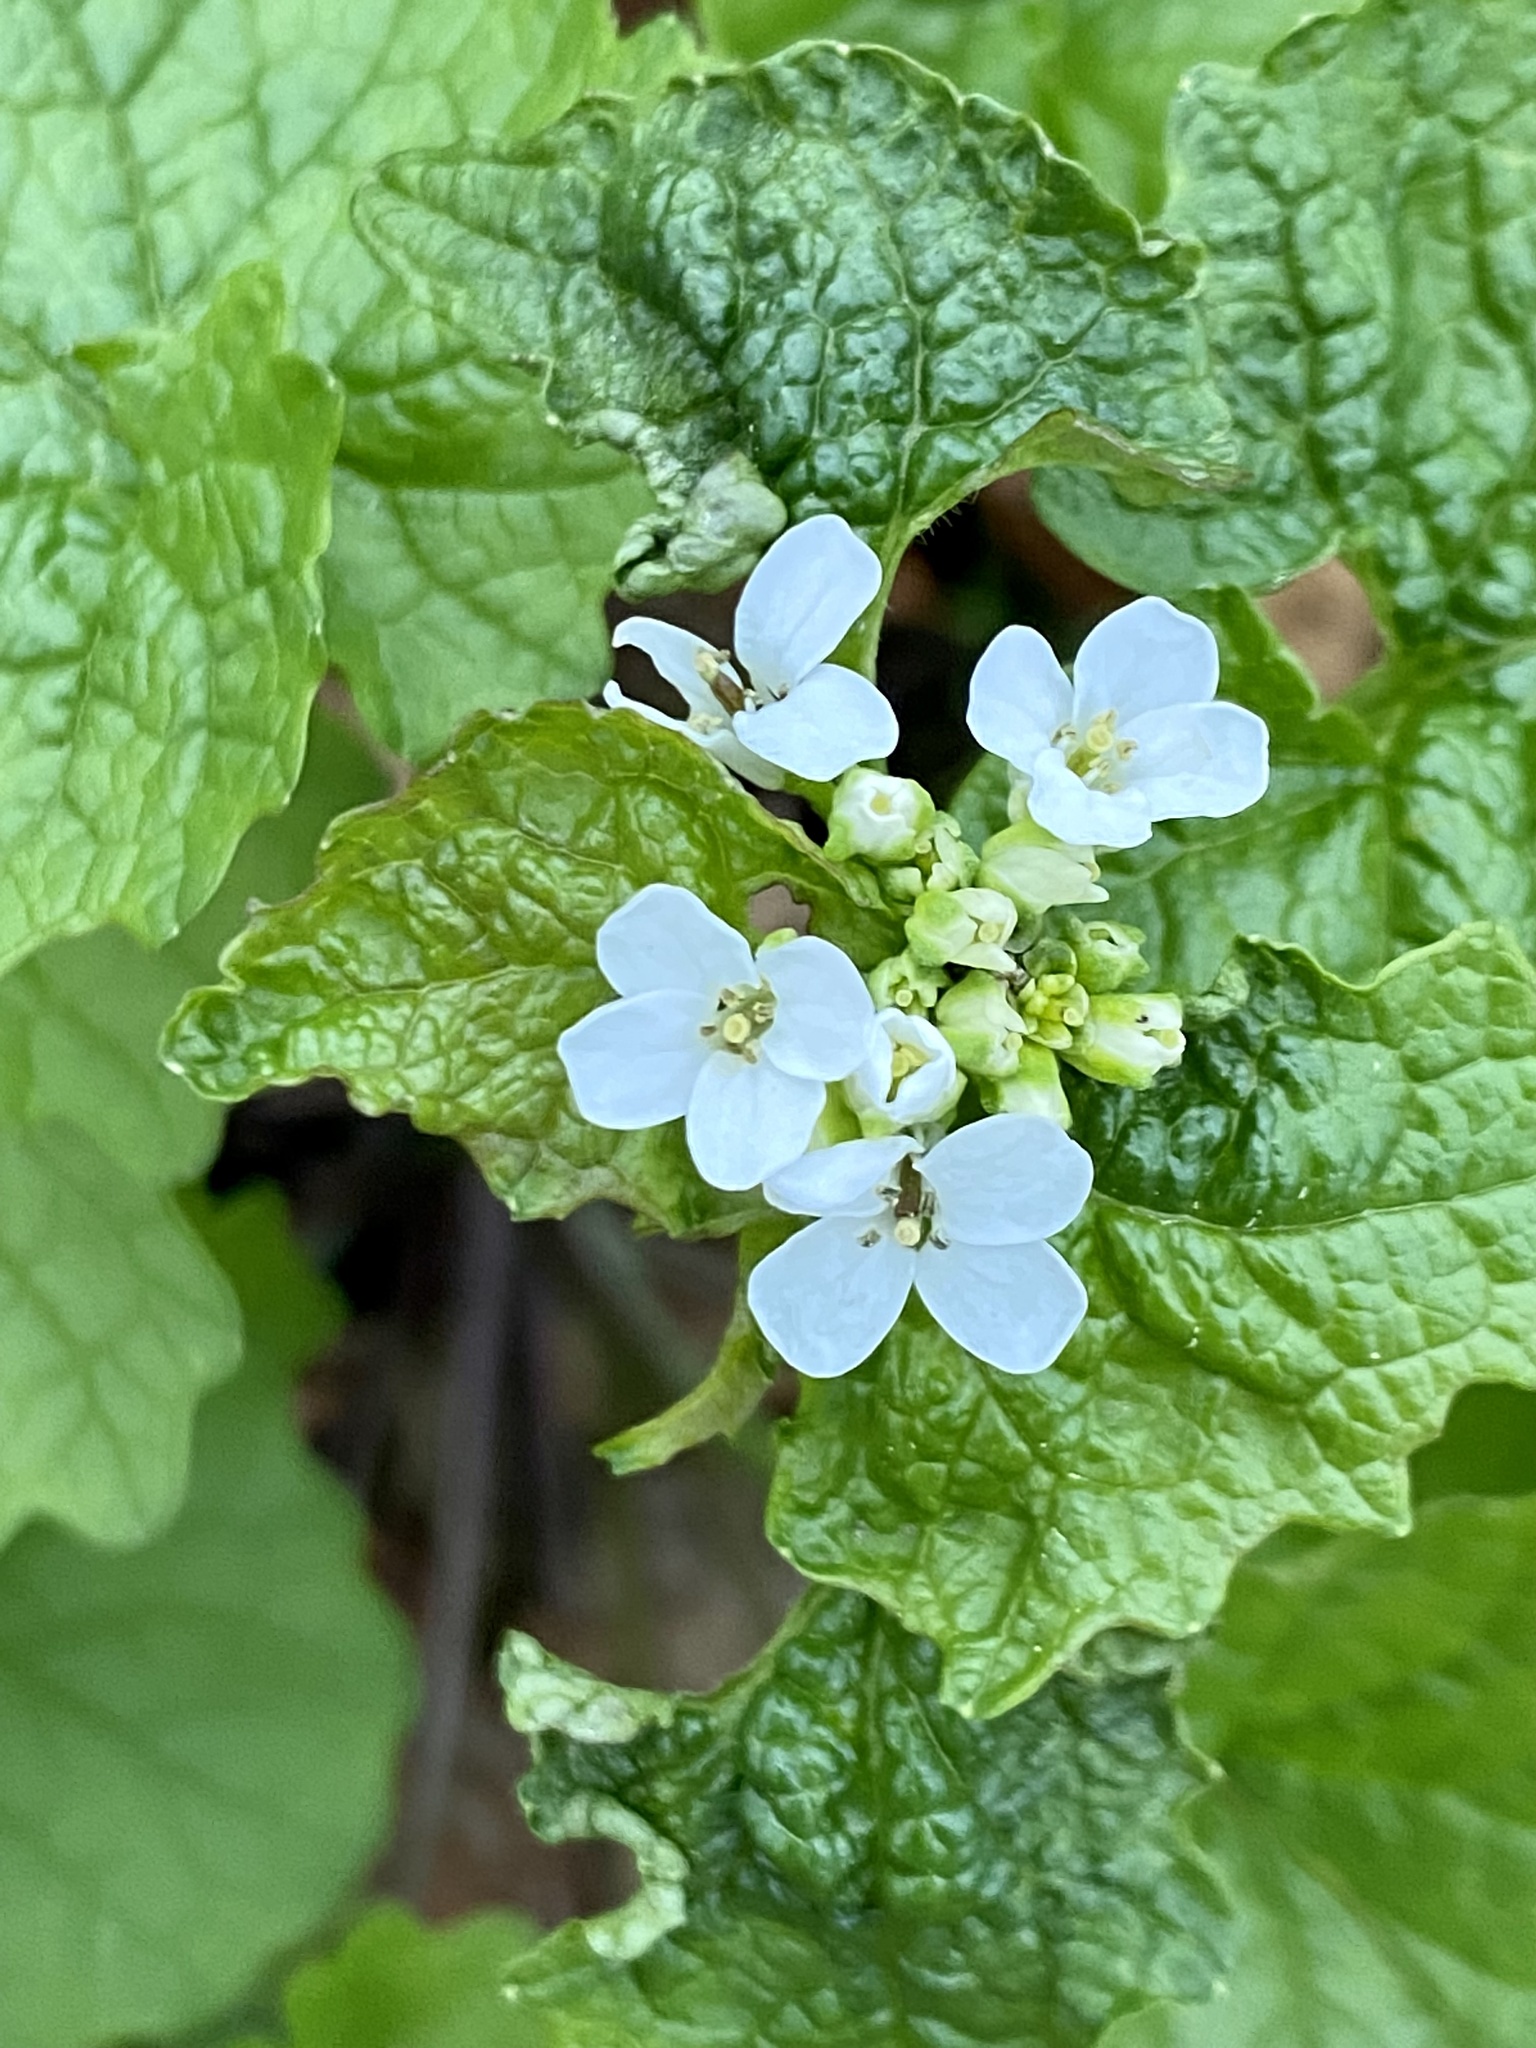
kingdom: Plantae
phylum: Tracheophyta
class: Magnoliopsida
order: Brassicales
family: Brassicaceae
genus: Alliaria
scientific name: Alliaria petiolata
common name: Garlic mustard
